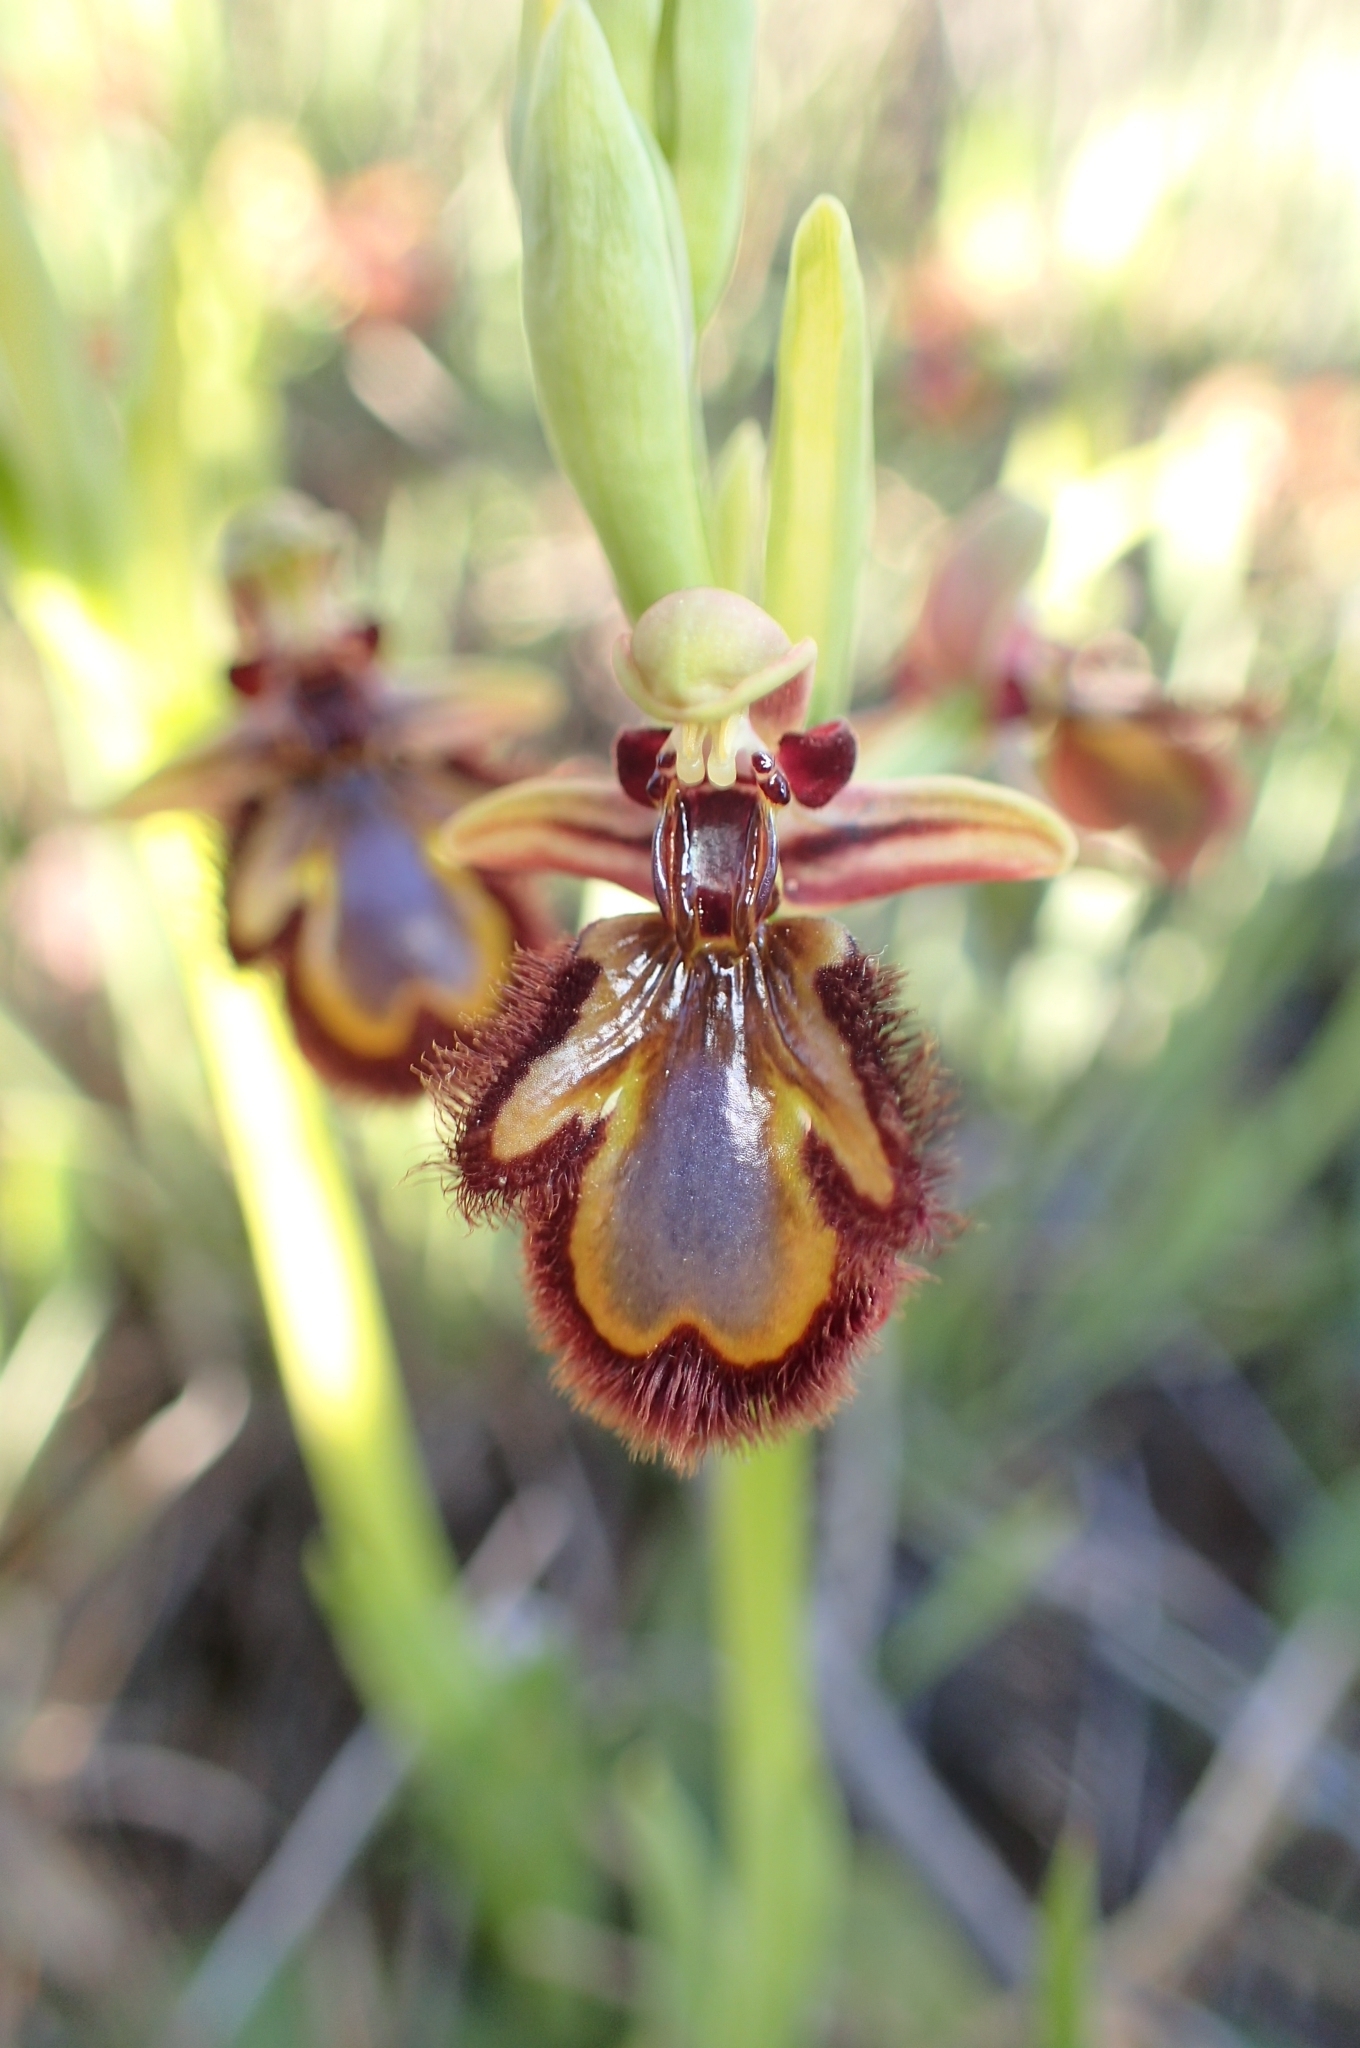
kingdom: Plantae
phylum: Tracheophyta
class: Liliopsida
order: Asparagales
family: Orchidaceae
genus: Ophrys
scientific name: Ophrys speculum
